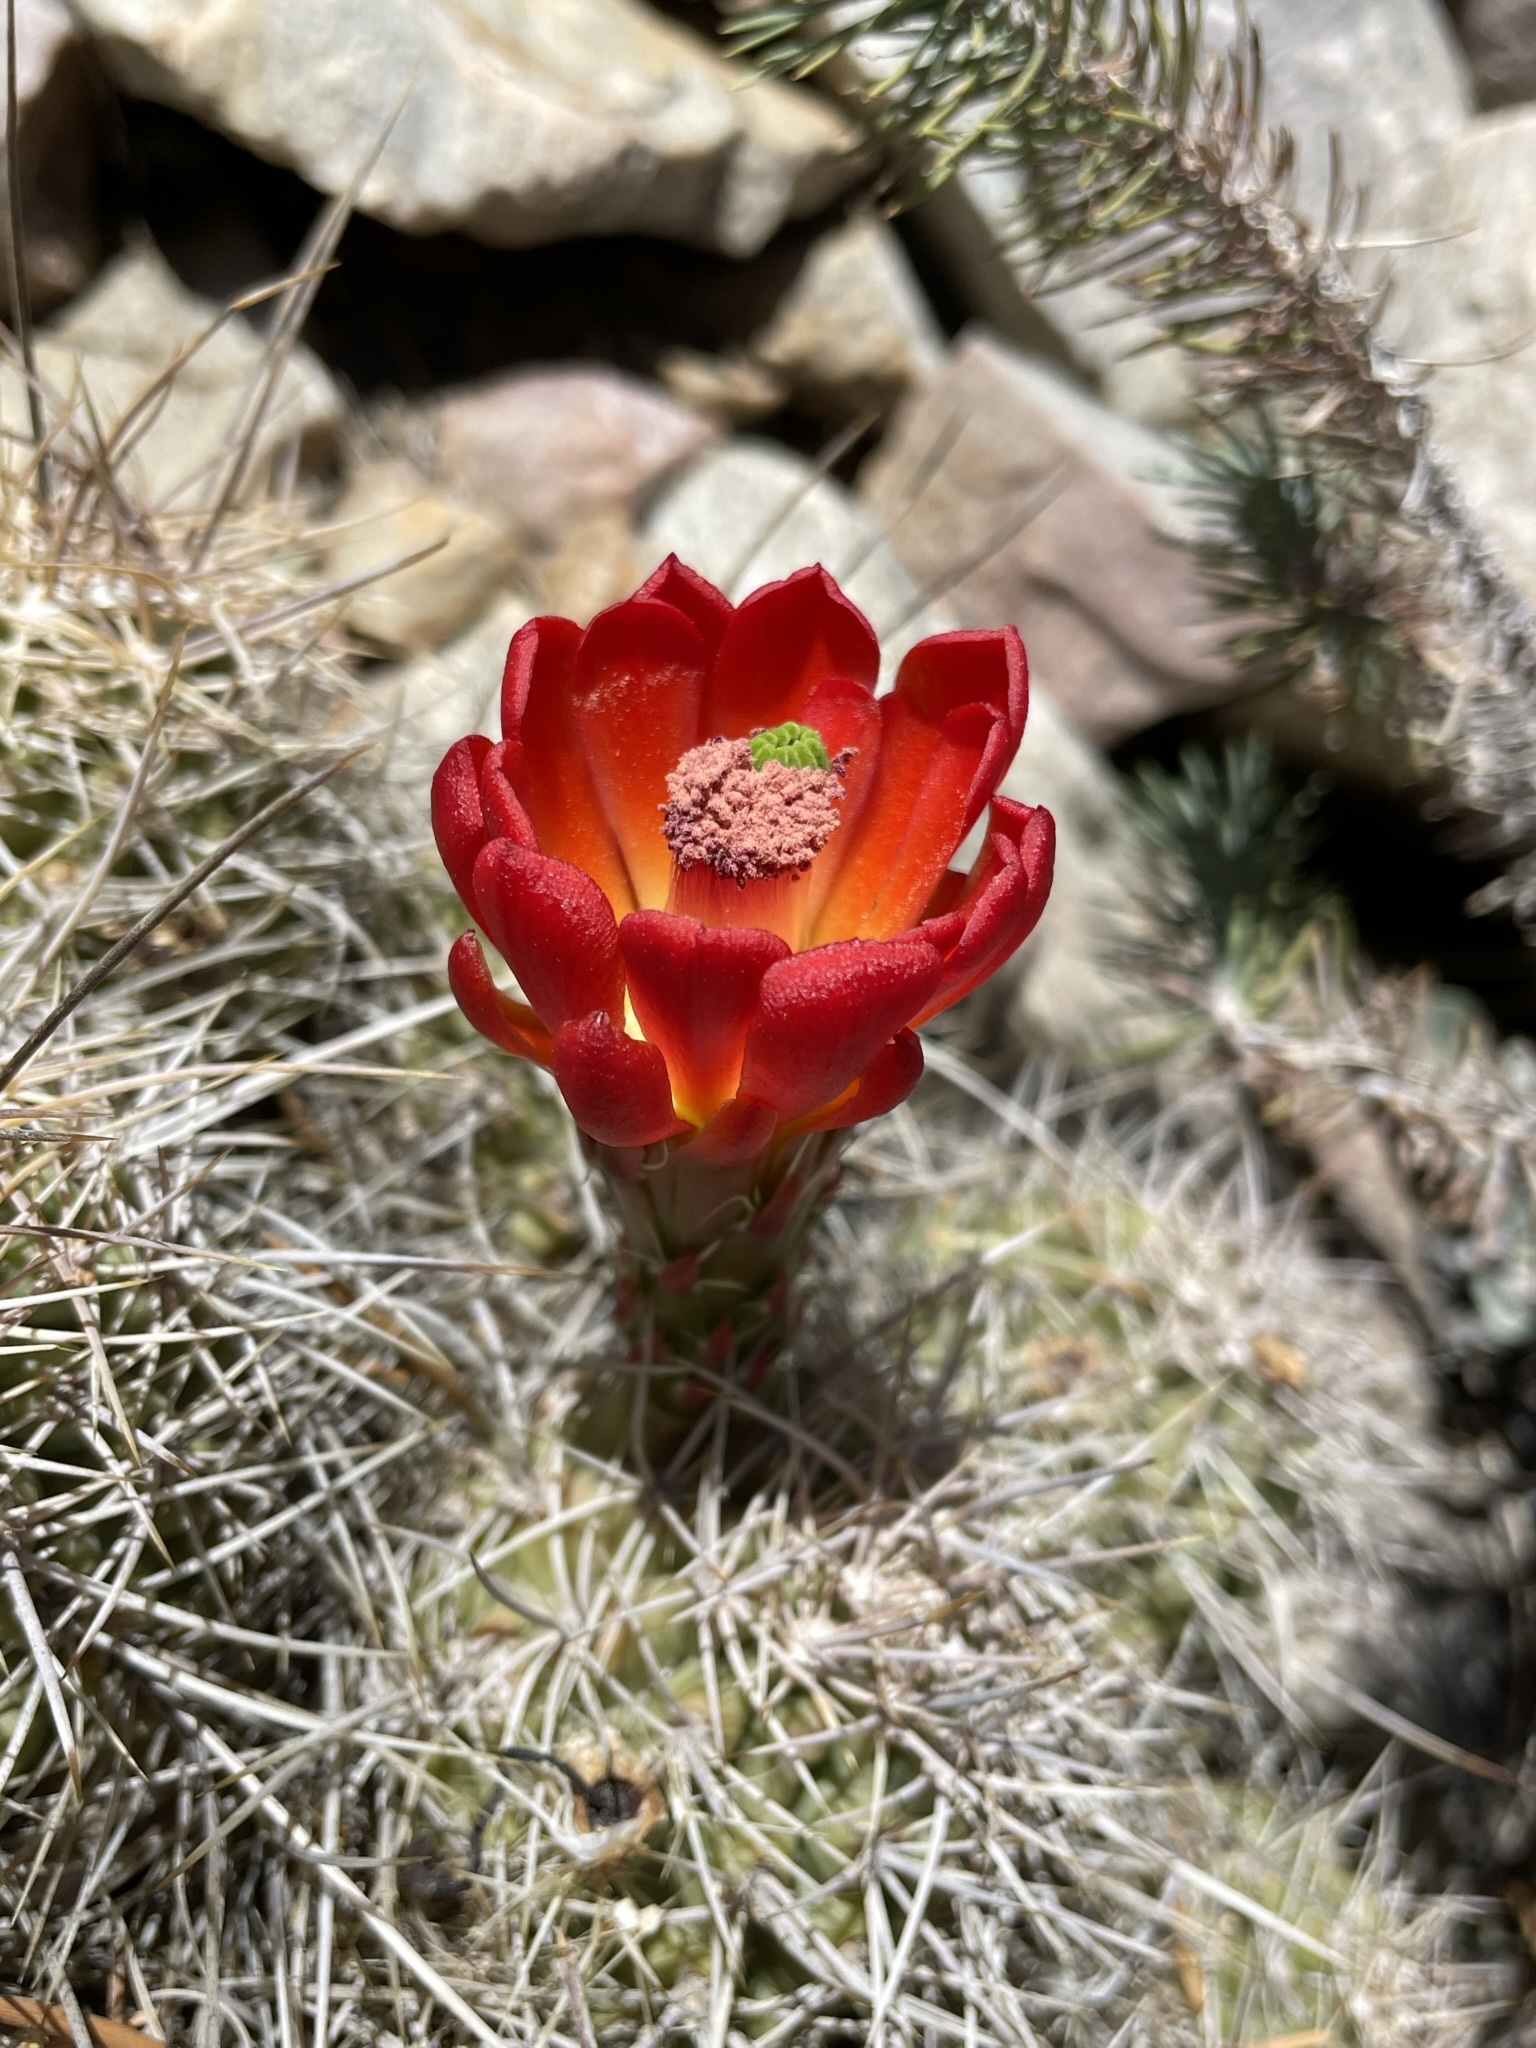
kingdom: Plantae
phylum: Tracheophyta
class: Magnoliopsida
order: Caryophyllales
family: Cactaceae
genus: Echinocereus
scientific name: Echinocereus triglochidiatus
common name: Claretcup hedgehog
